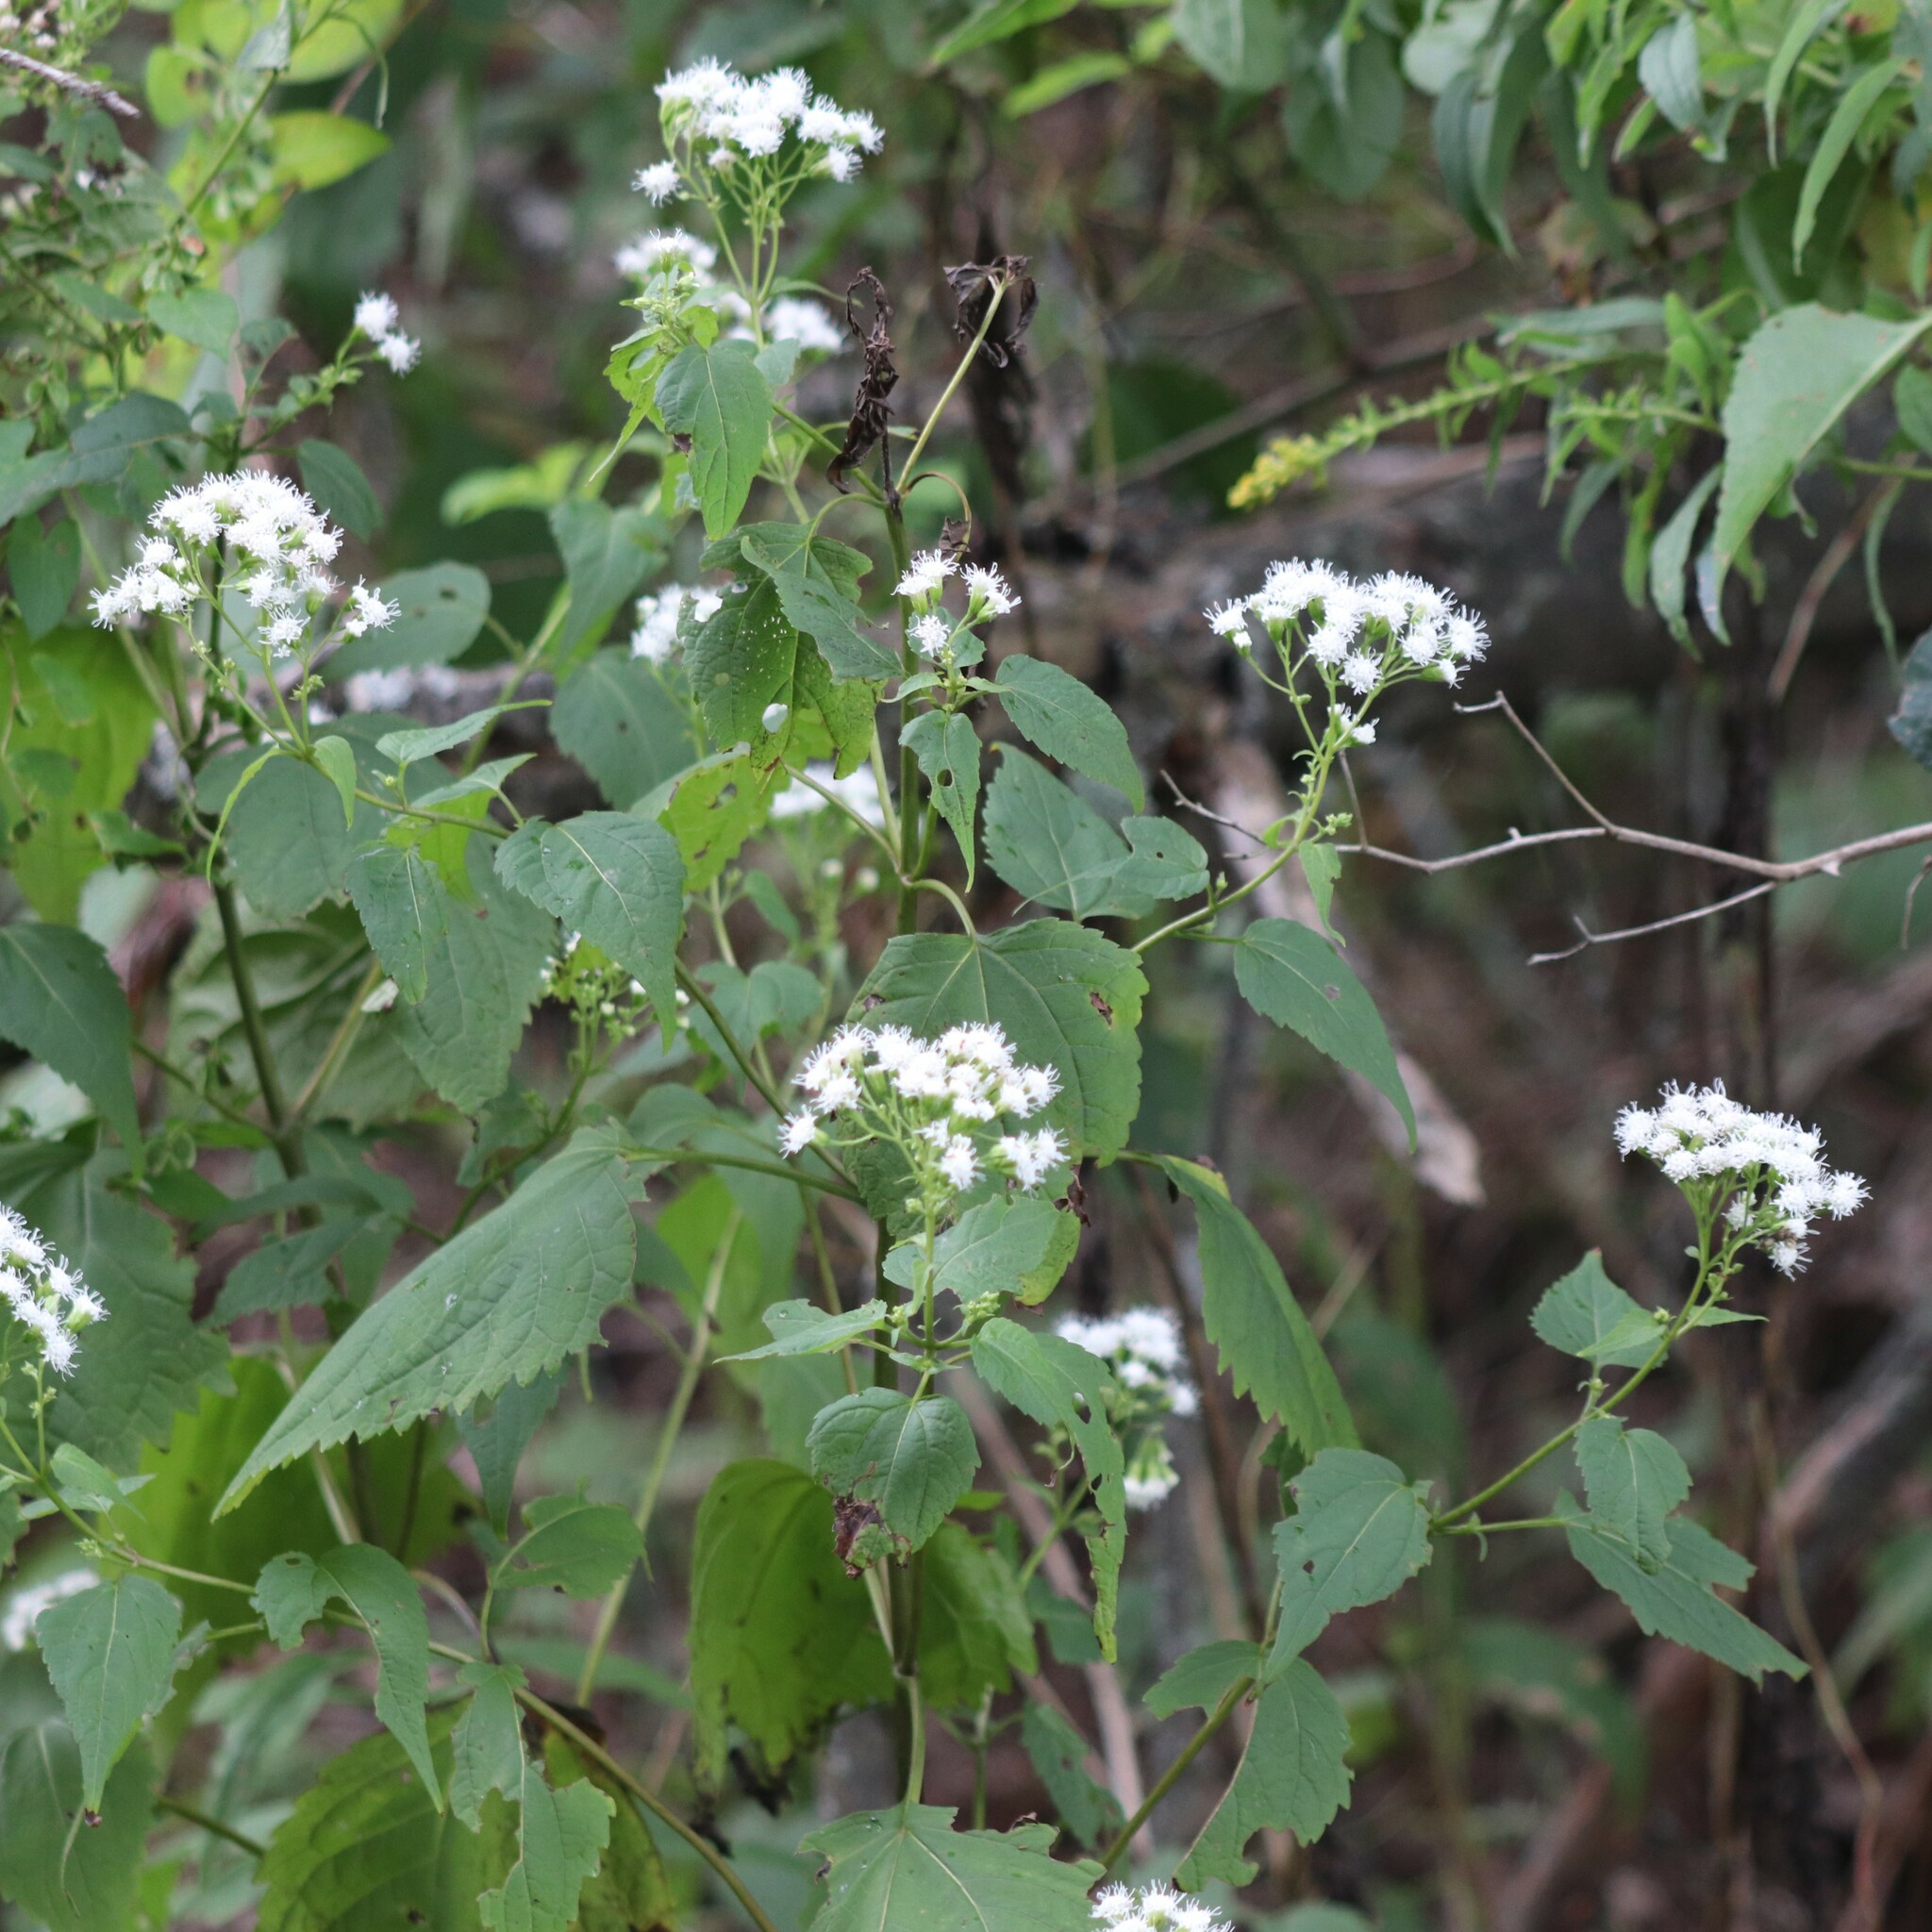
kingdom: Plantae
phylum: Tracheophyta
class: Magnoliopsida
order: Asterales
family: Asteraceae
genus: Ageratina
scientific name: Ageratina altissima
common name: White snakeroot
